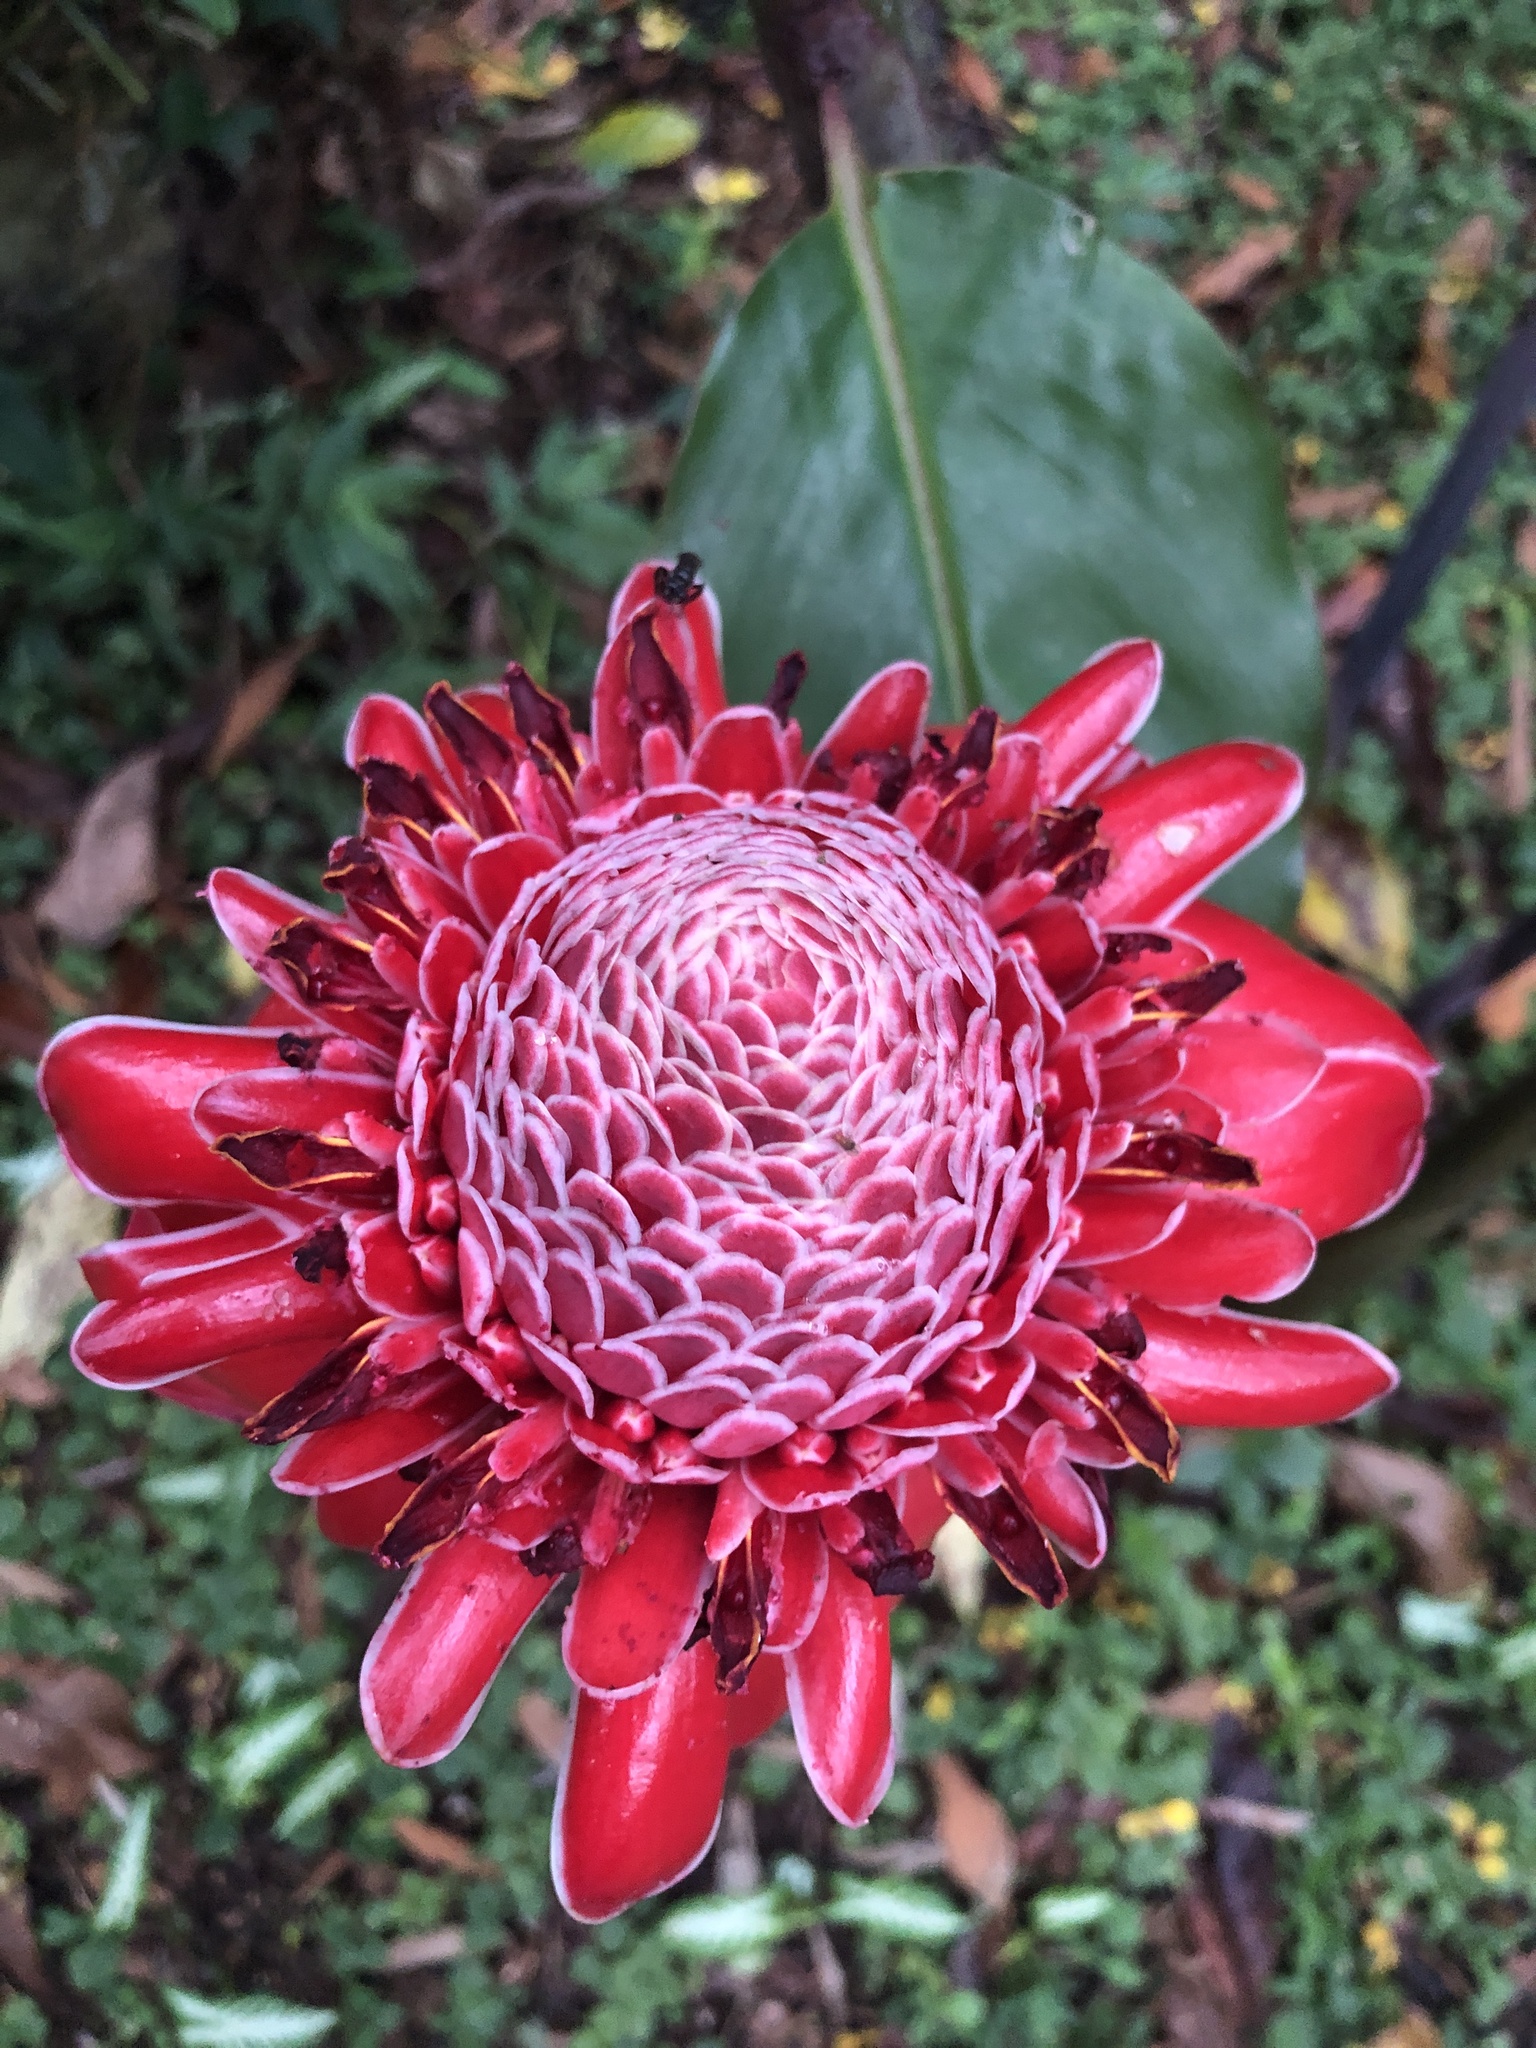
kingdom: Plantae
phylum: Tracheophyta
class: Liliopsida
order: Zingiberales
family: Zingiberaceae
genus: Etlingera
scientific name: Etlingera elatior
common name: Philippine waxflower
